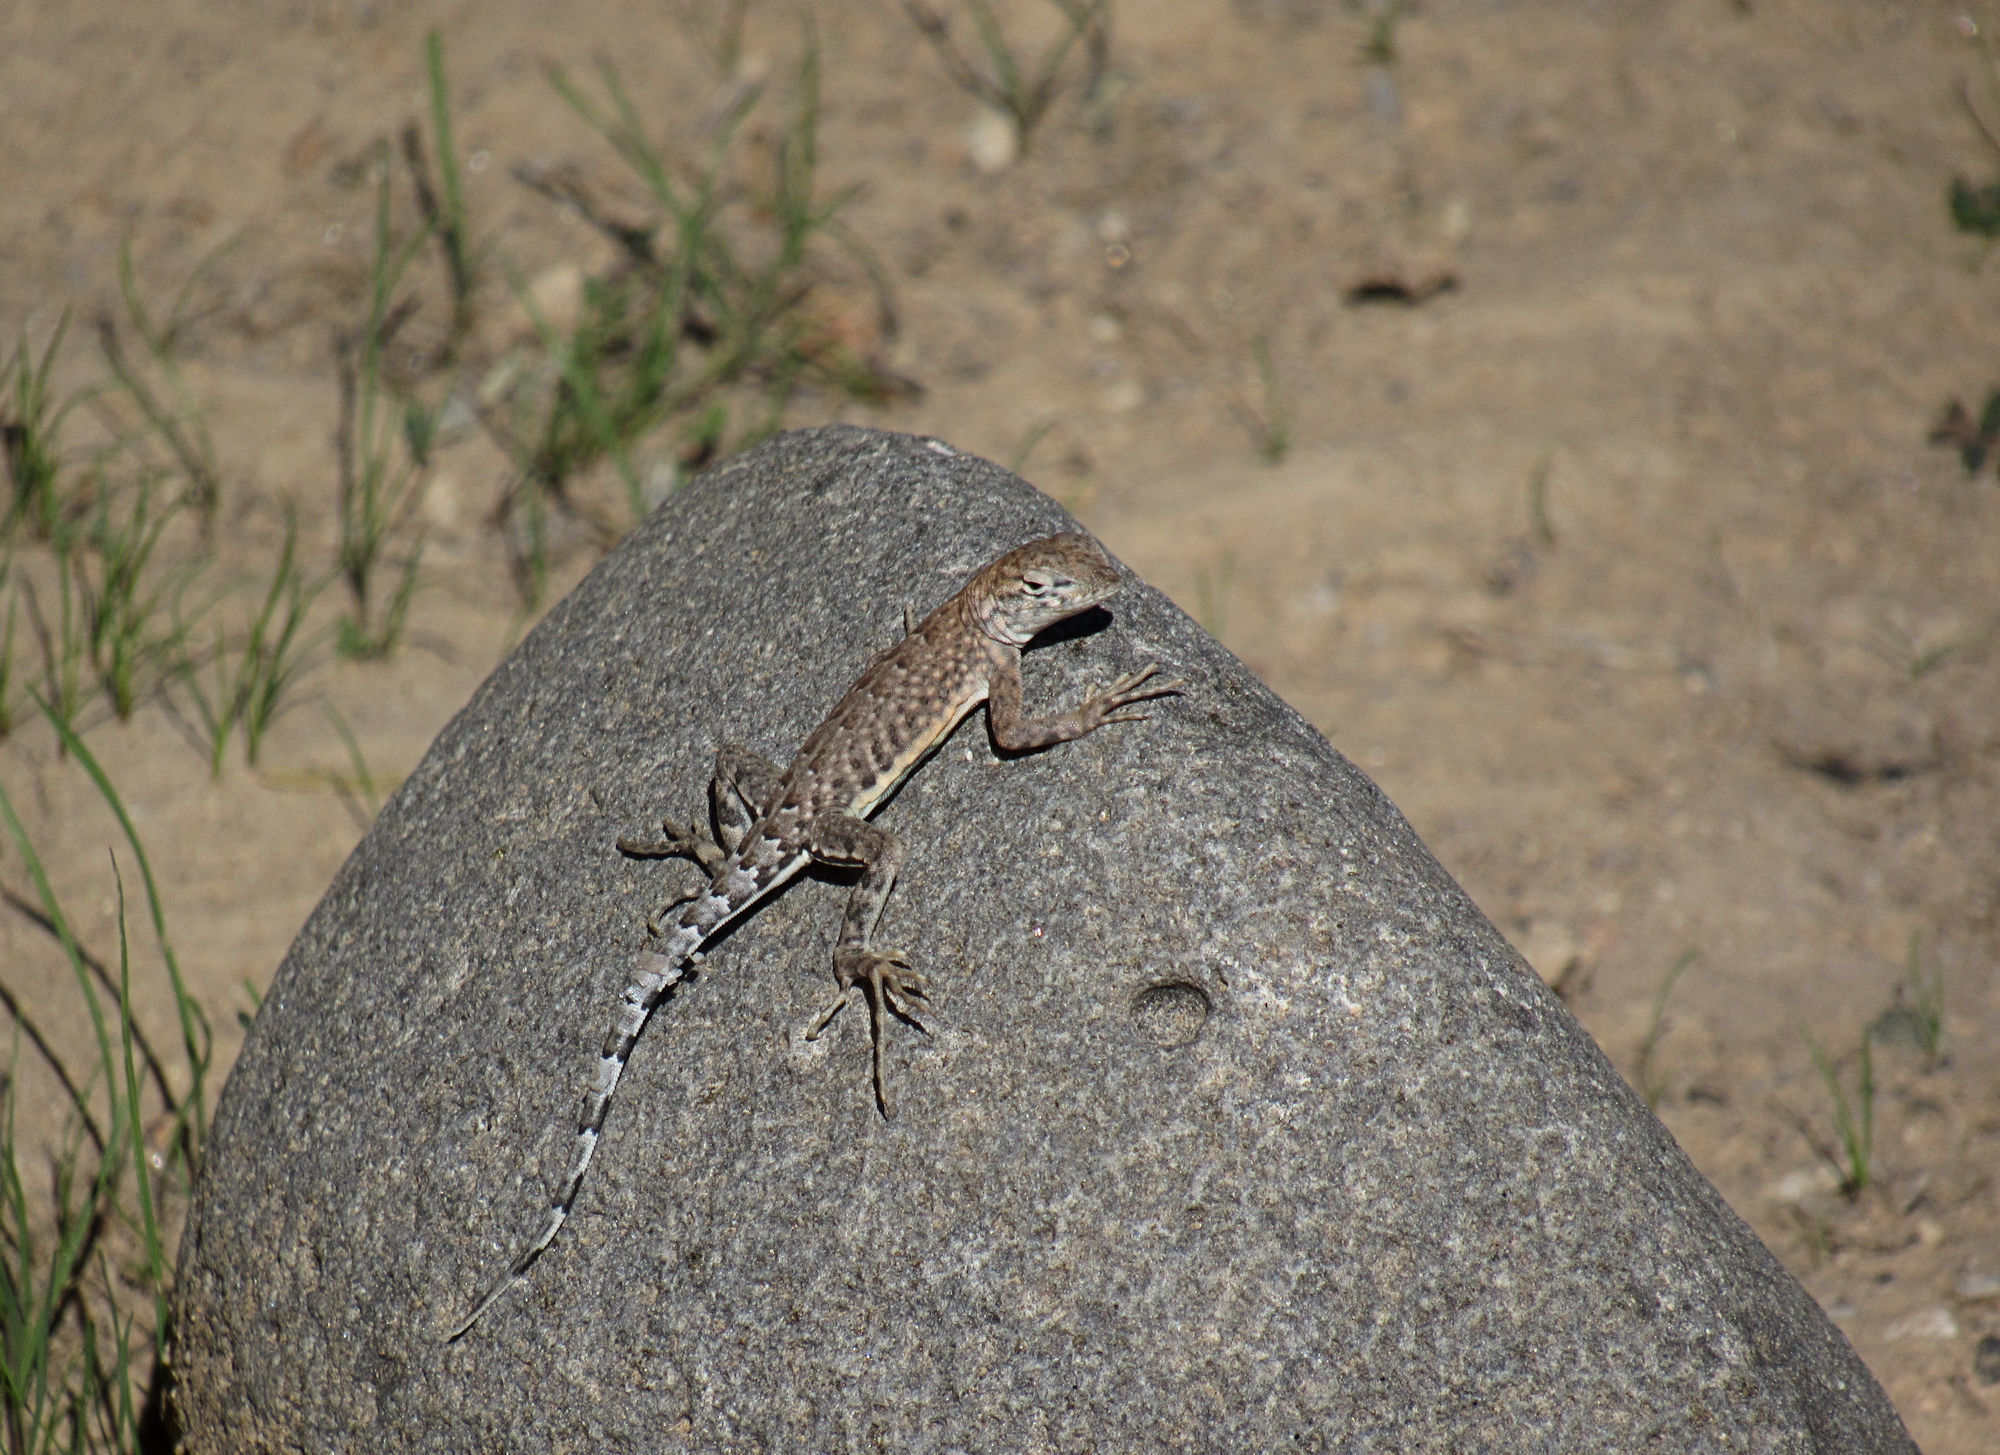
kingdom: Animalia
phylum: Chordata
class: Squamata
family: Phrynosomatidae
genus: Cophosaurus
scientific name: Cophosaurus texanus
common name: Greater earless lizard
